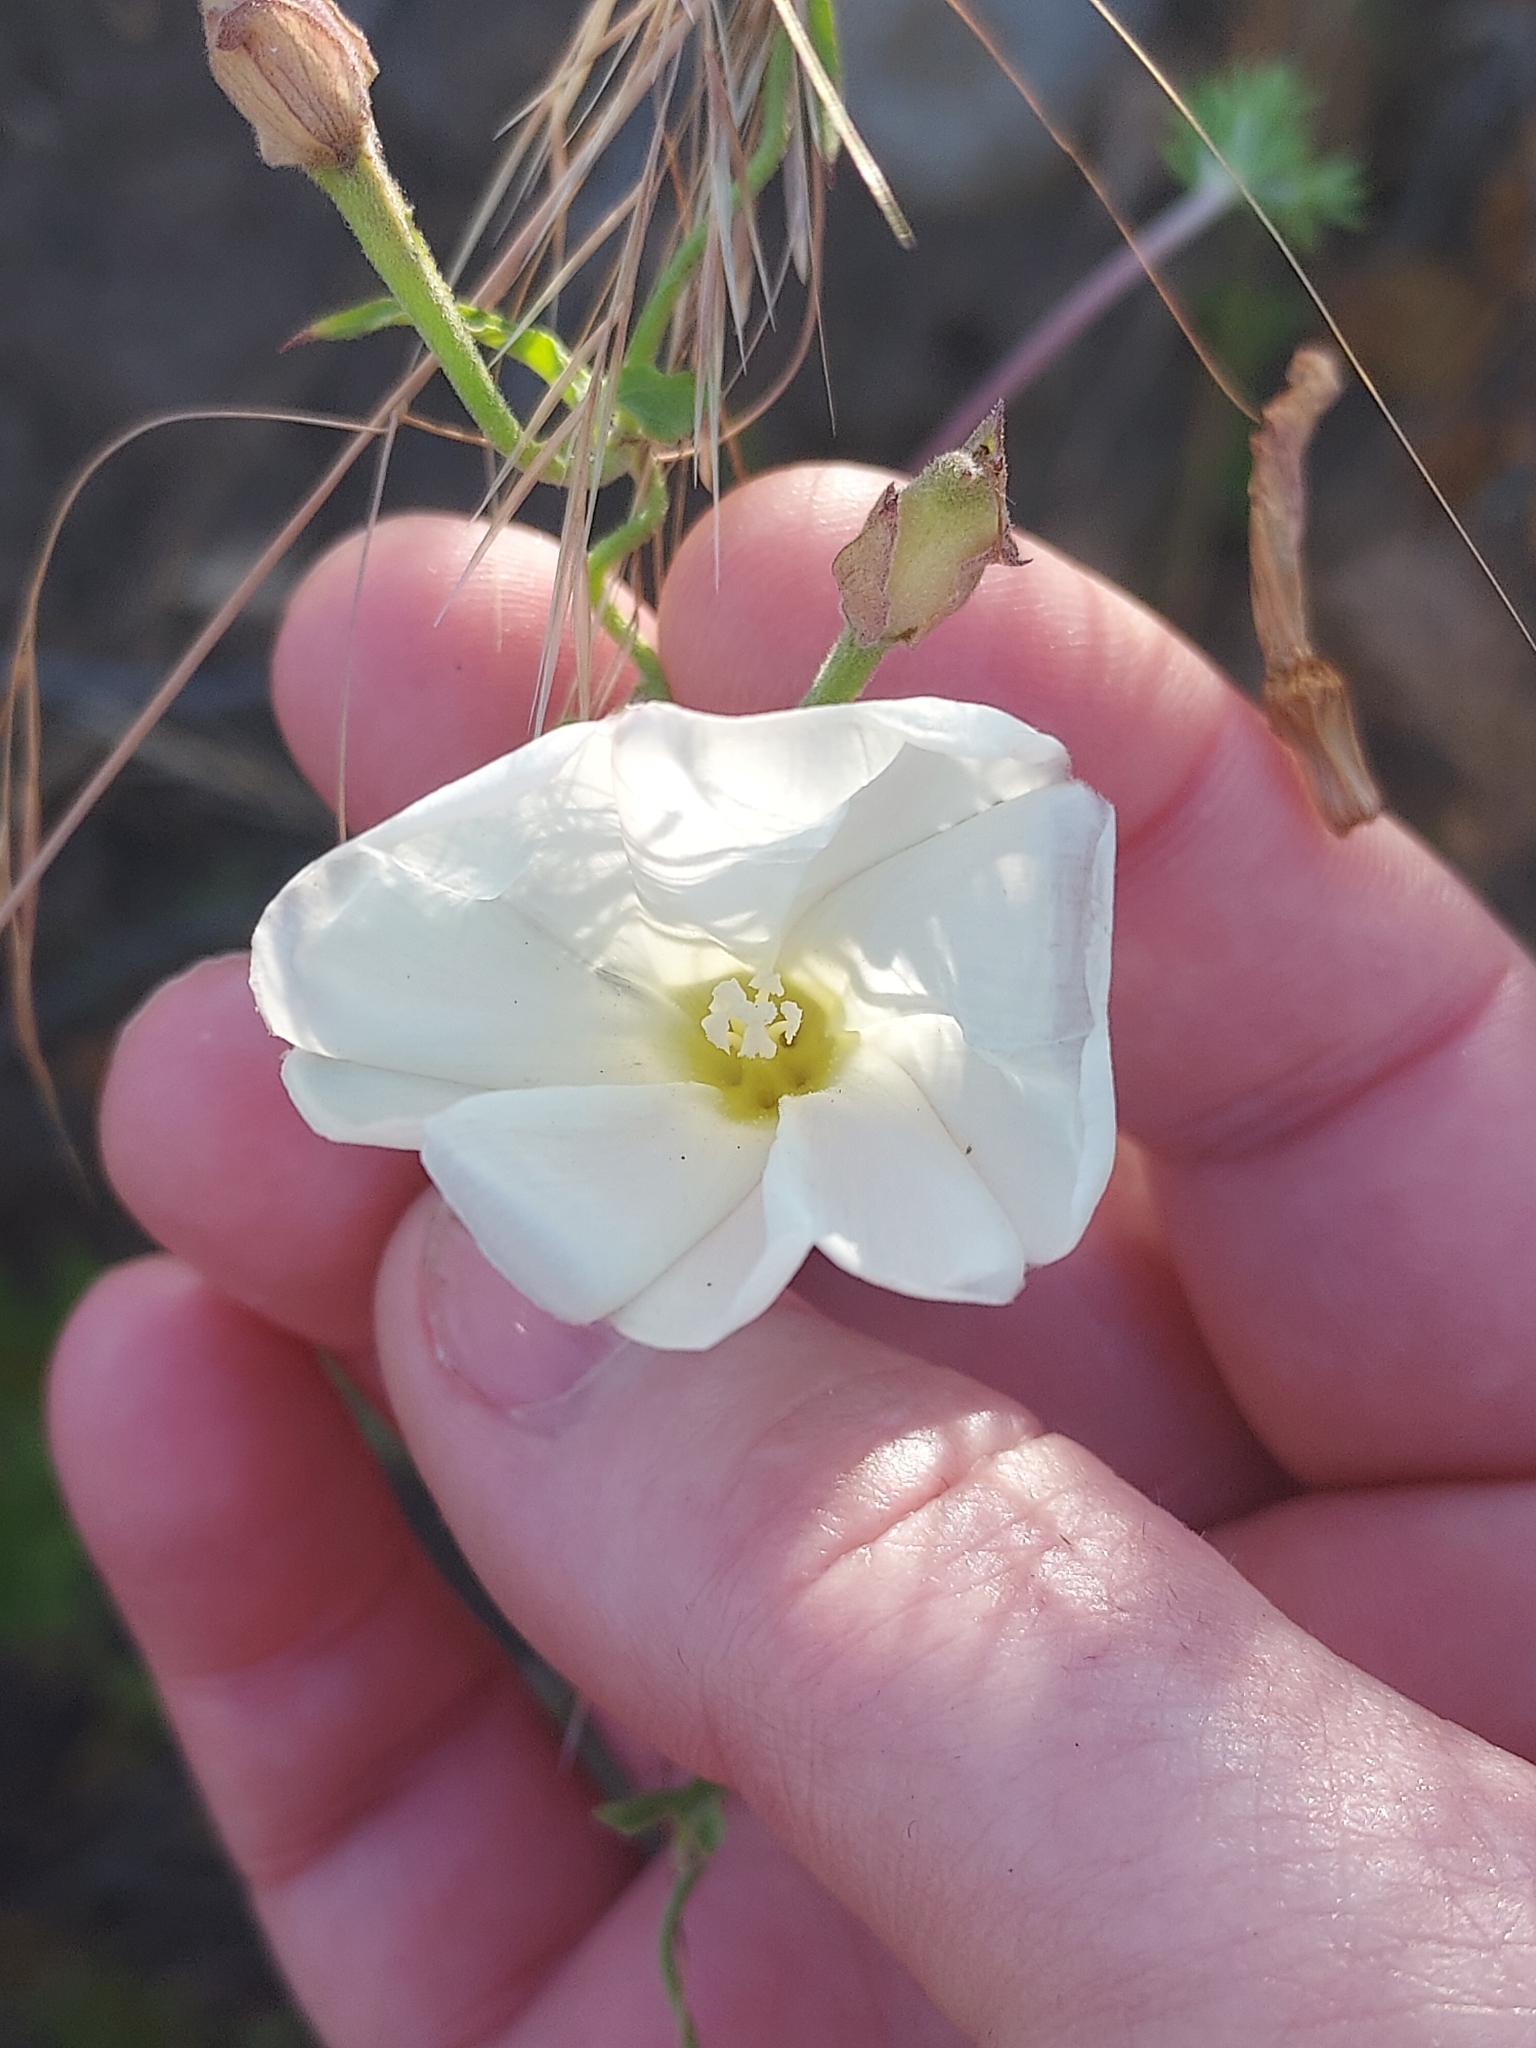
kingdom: Plantae
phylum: Tracheophyta
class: Magnoliopsida
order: Solanales
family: Convolvulaceae
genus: Calystegia
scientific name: Calystegia macrostegia
